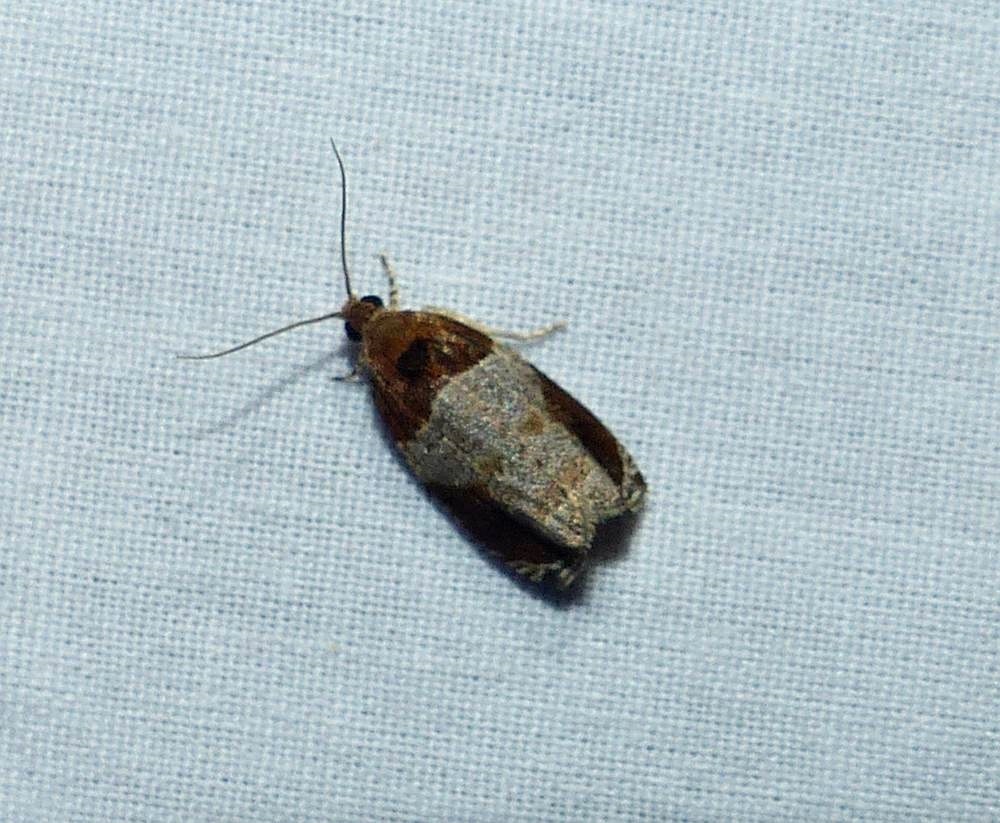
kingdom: Animalia
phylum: Arthropoda
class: Insecta
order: Lepidoptera
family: Tortricidae
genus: Olethreutes
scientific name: Olethreutes ferriferana
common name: Hydrangea leaftier moth
